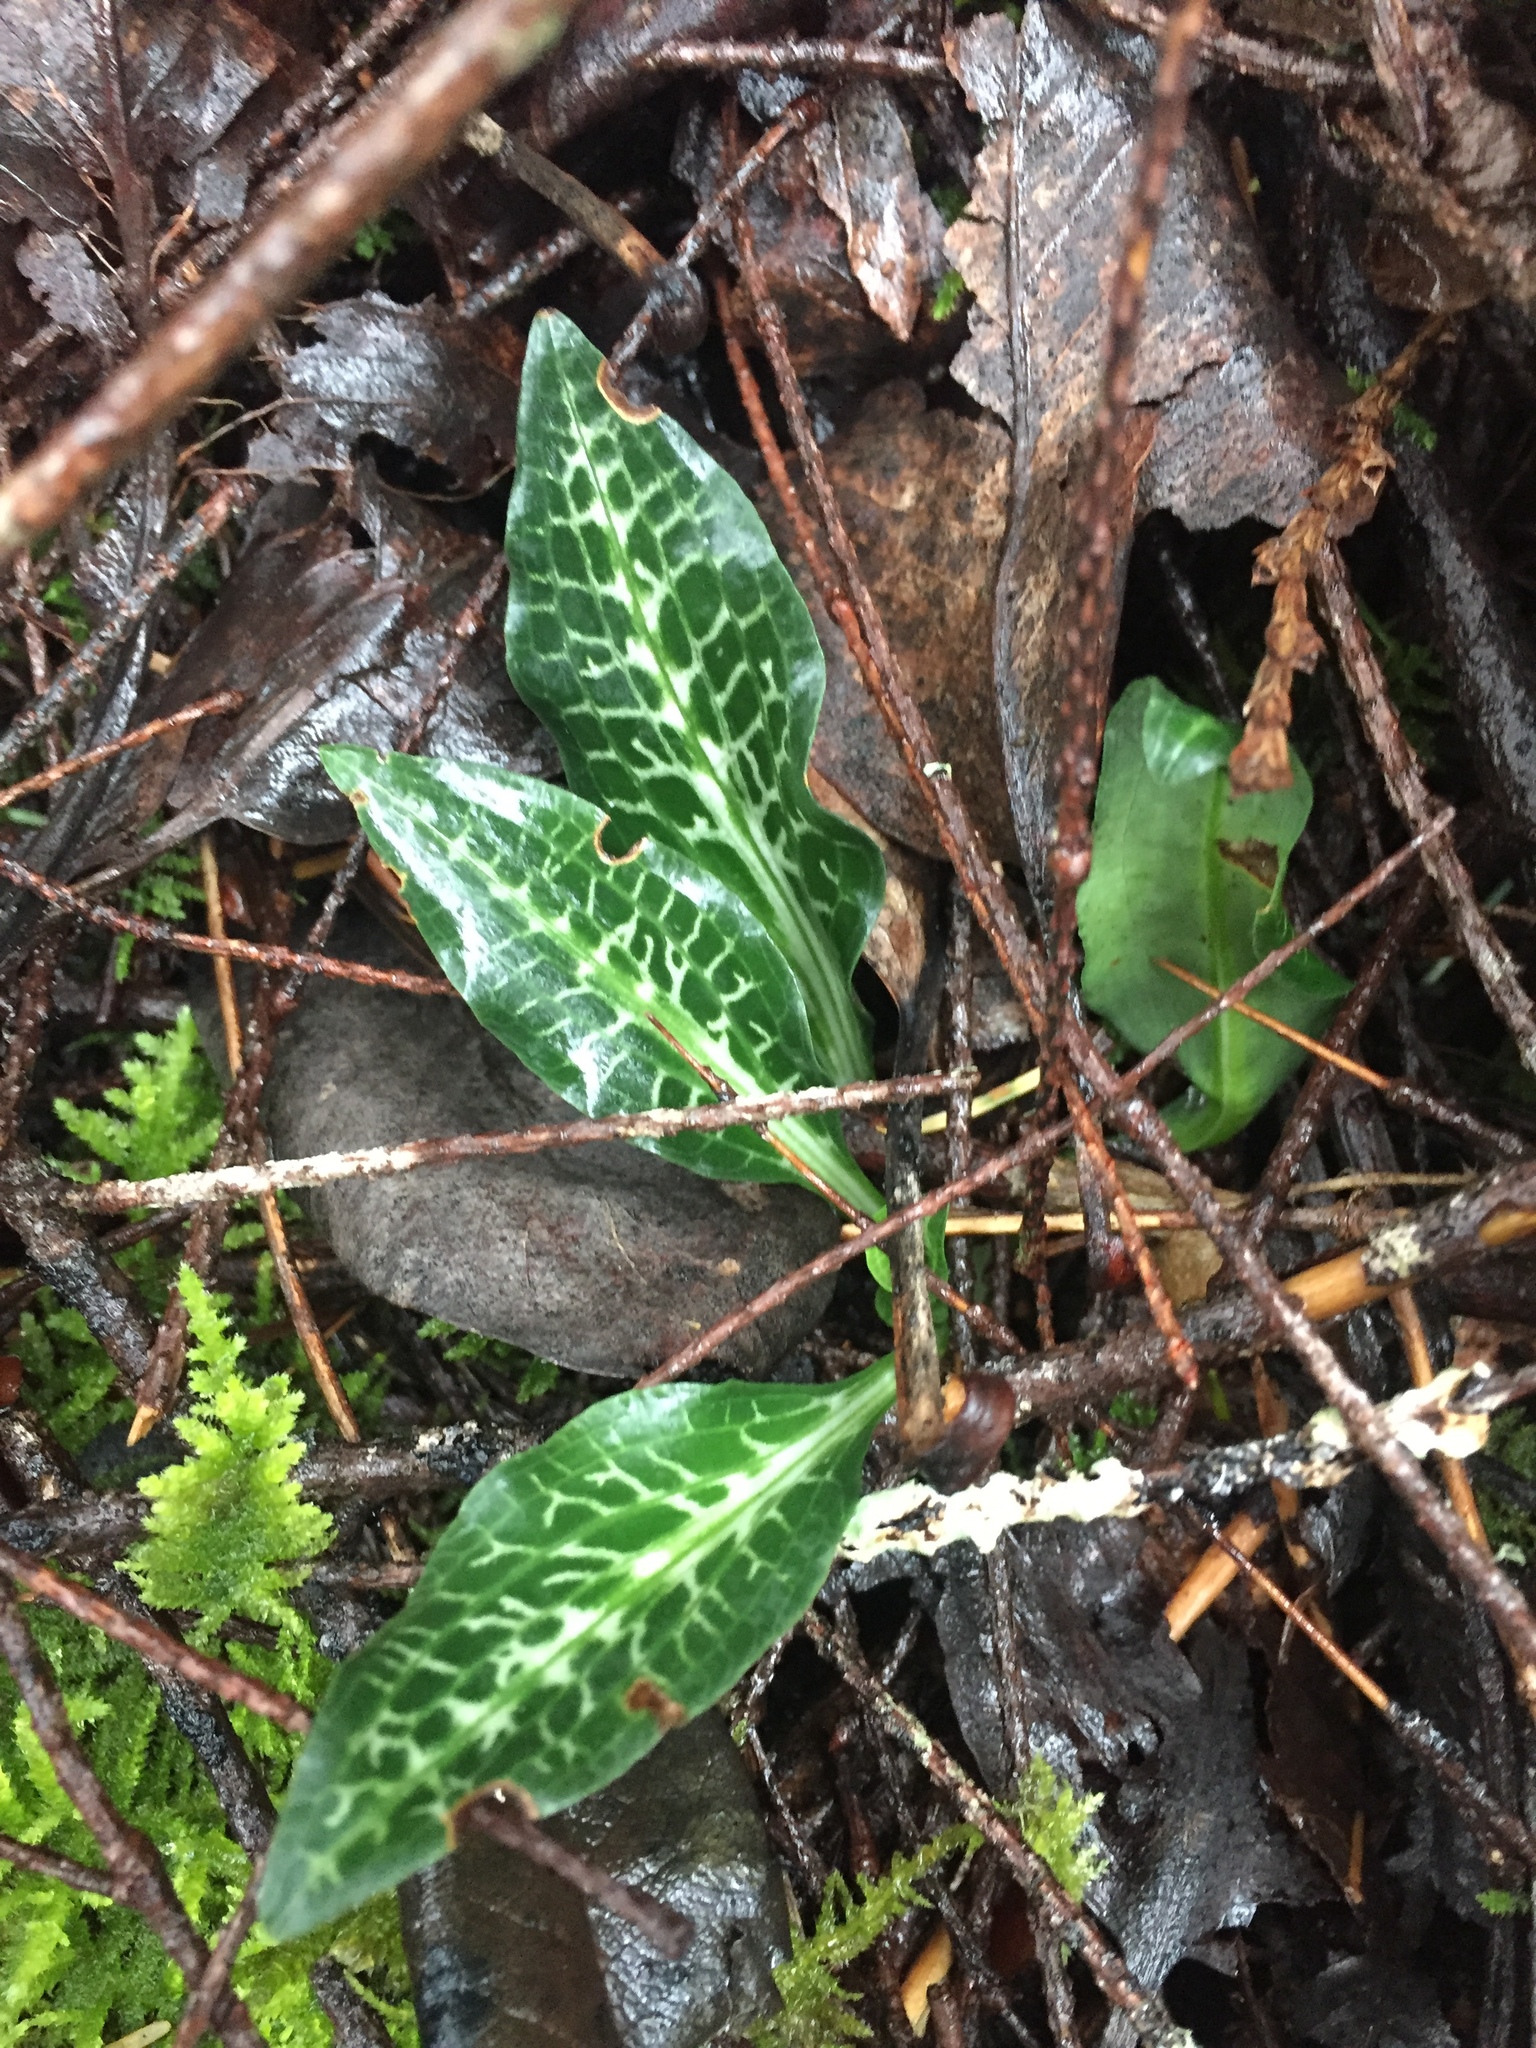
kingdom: Plantae
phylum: Tracheophyta
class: Liliopsida
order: Asparagales
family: Orchidaceae
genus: Goodyera
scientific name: Goodyera oblongifolia
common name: Giant rattlesnake-plantain
